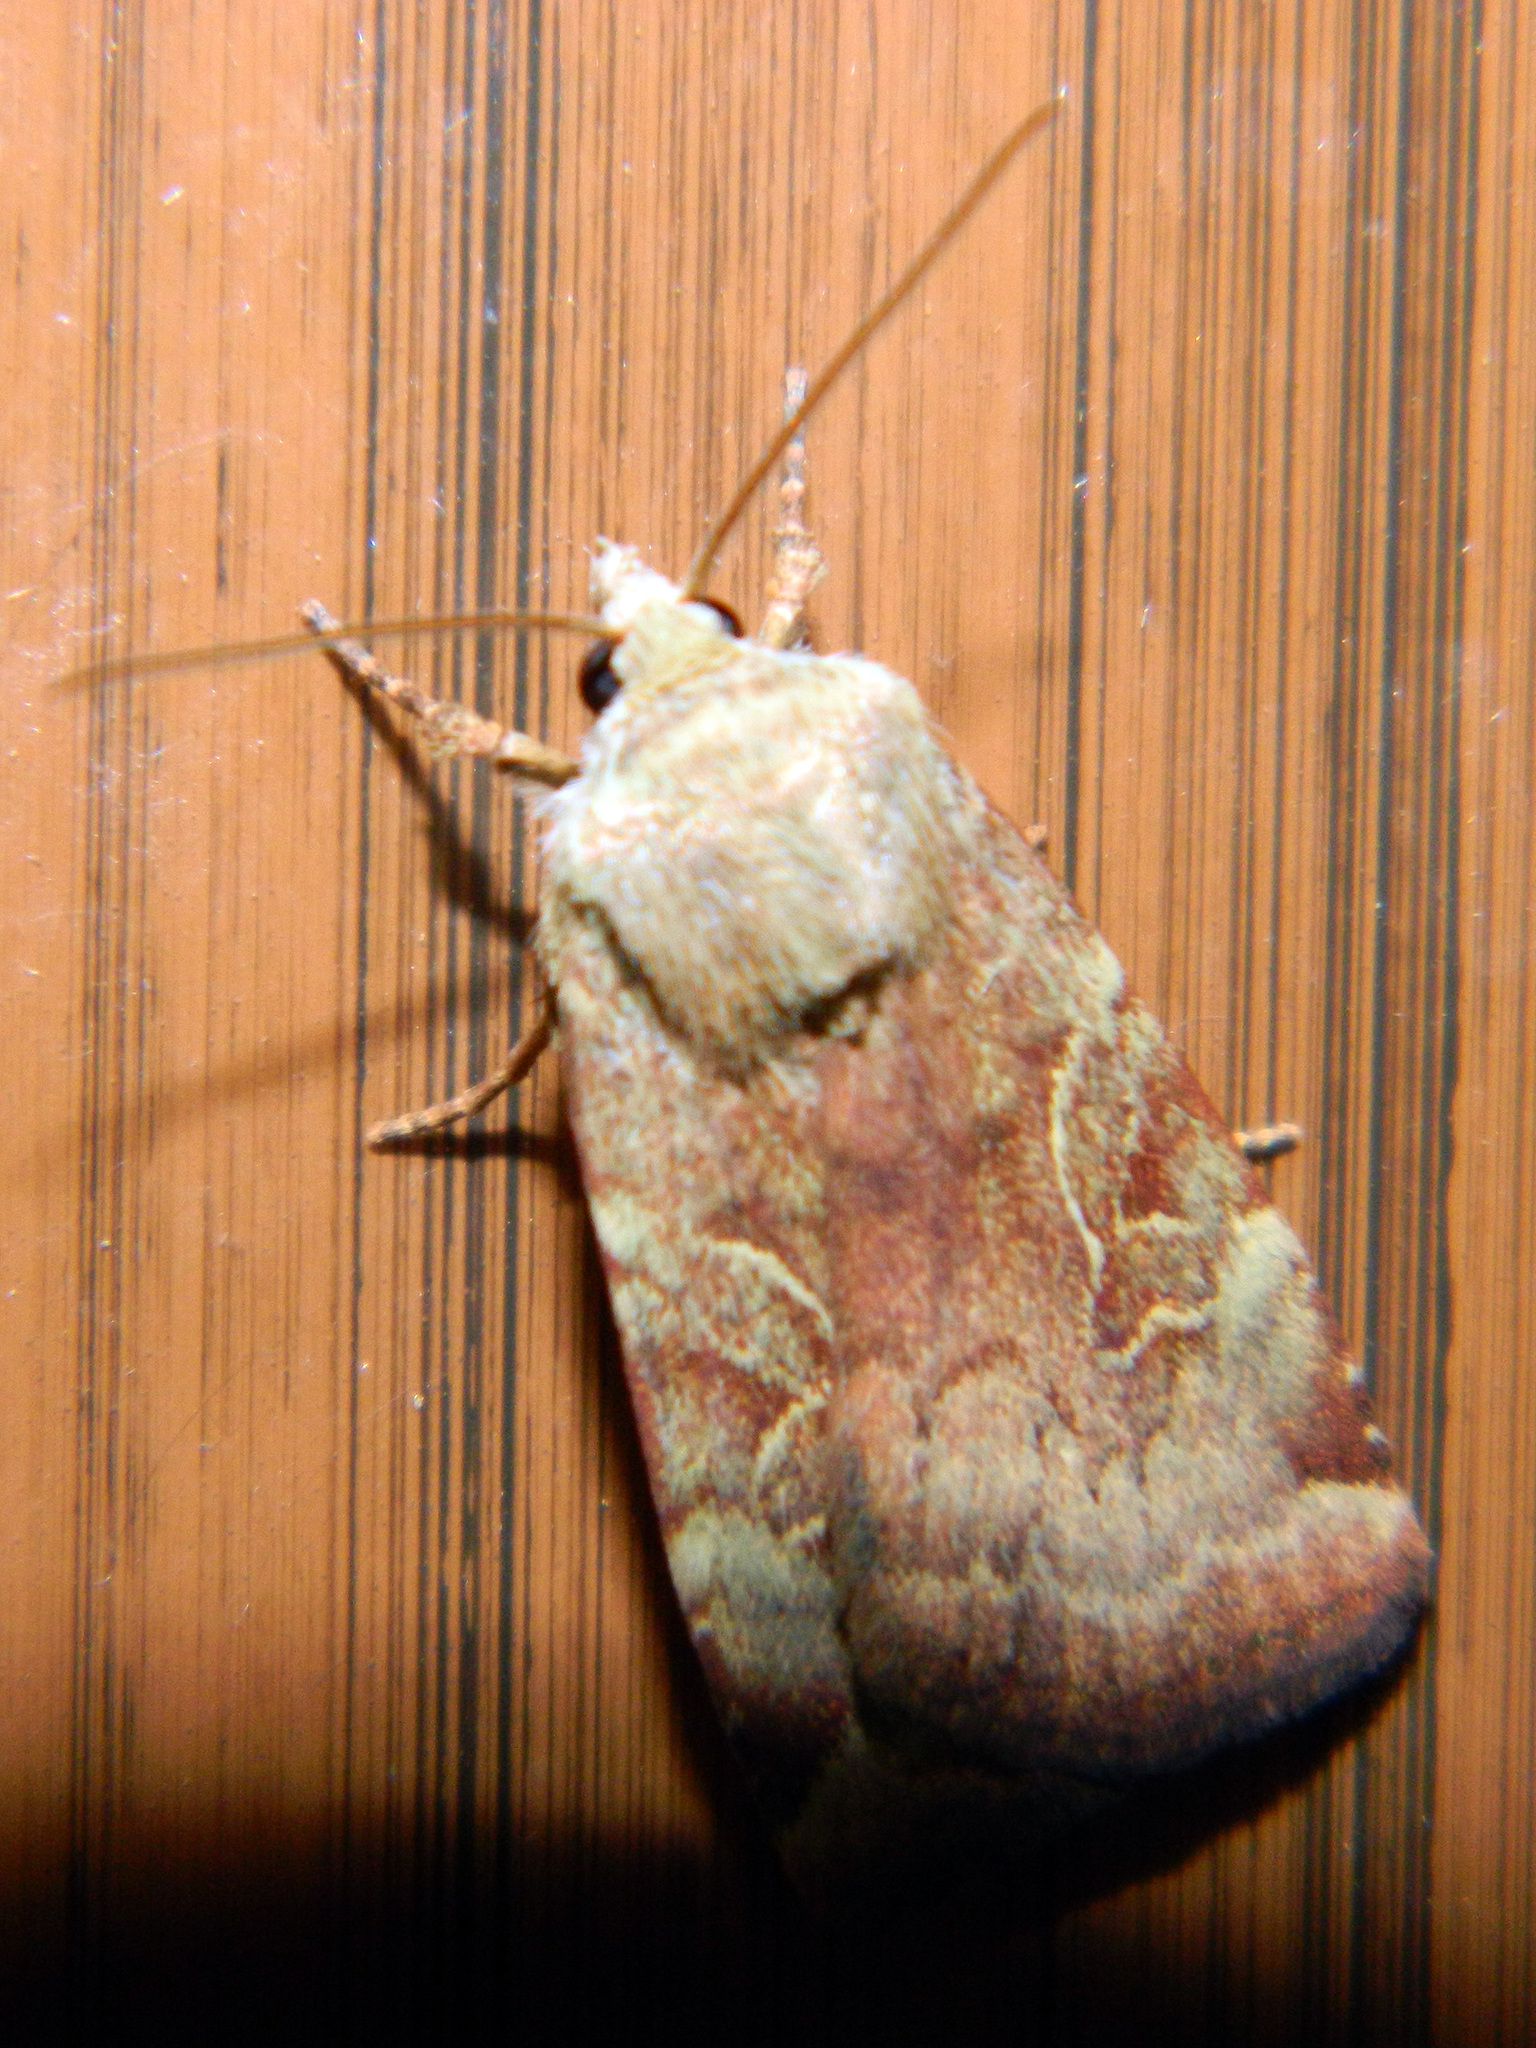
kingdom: Animalia
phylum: Arthropoda
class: Insecta
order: Lepidoptera
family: Noctuidae
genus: Cryptocala
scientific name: Cryptocala acadiensis
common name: Catocaline dart
